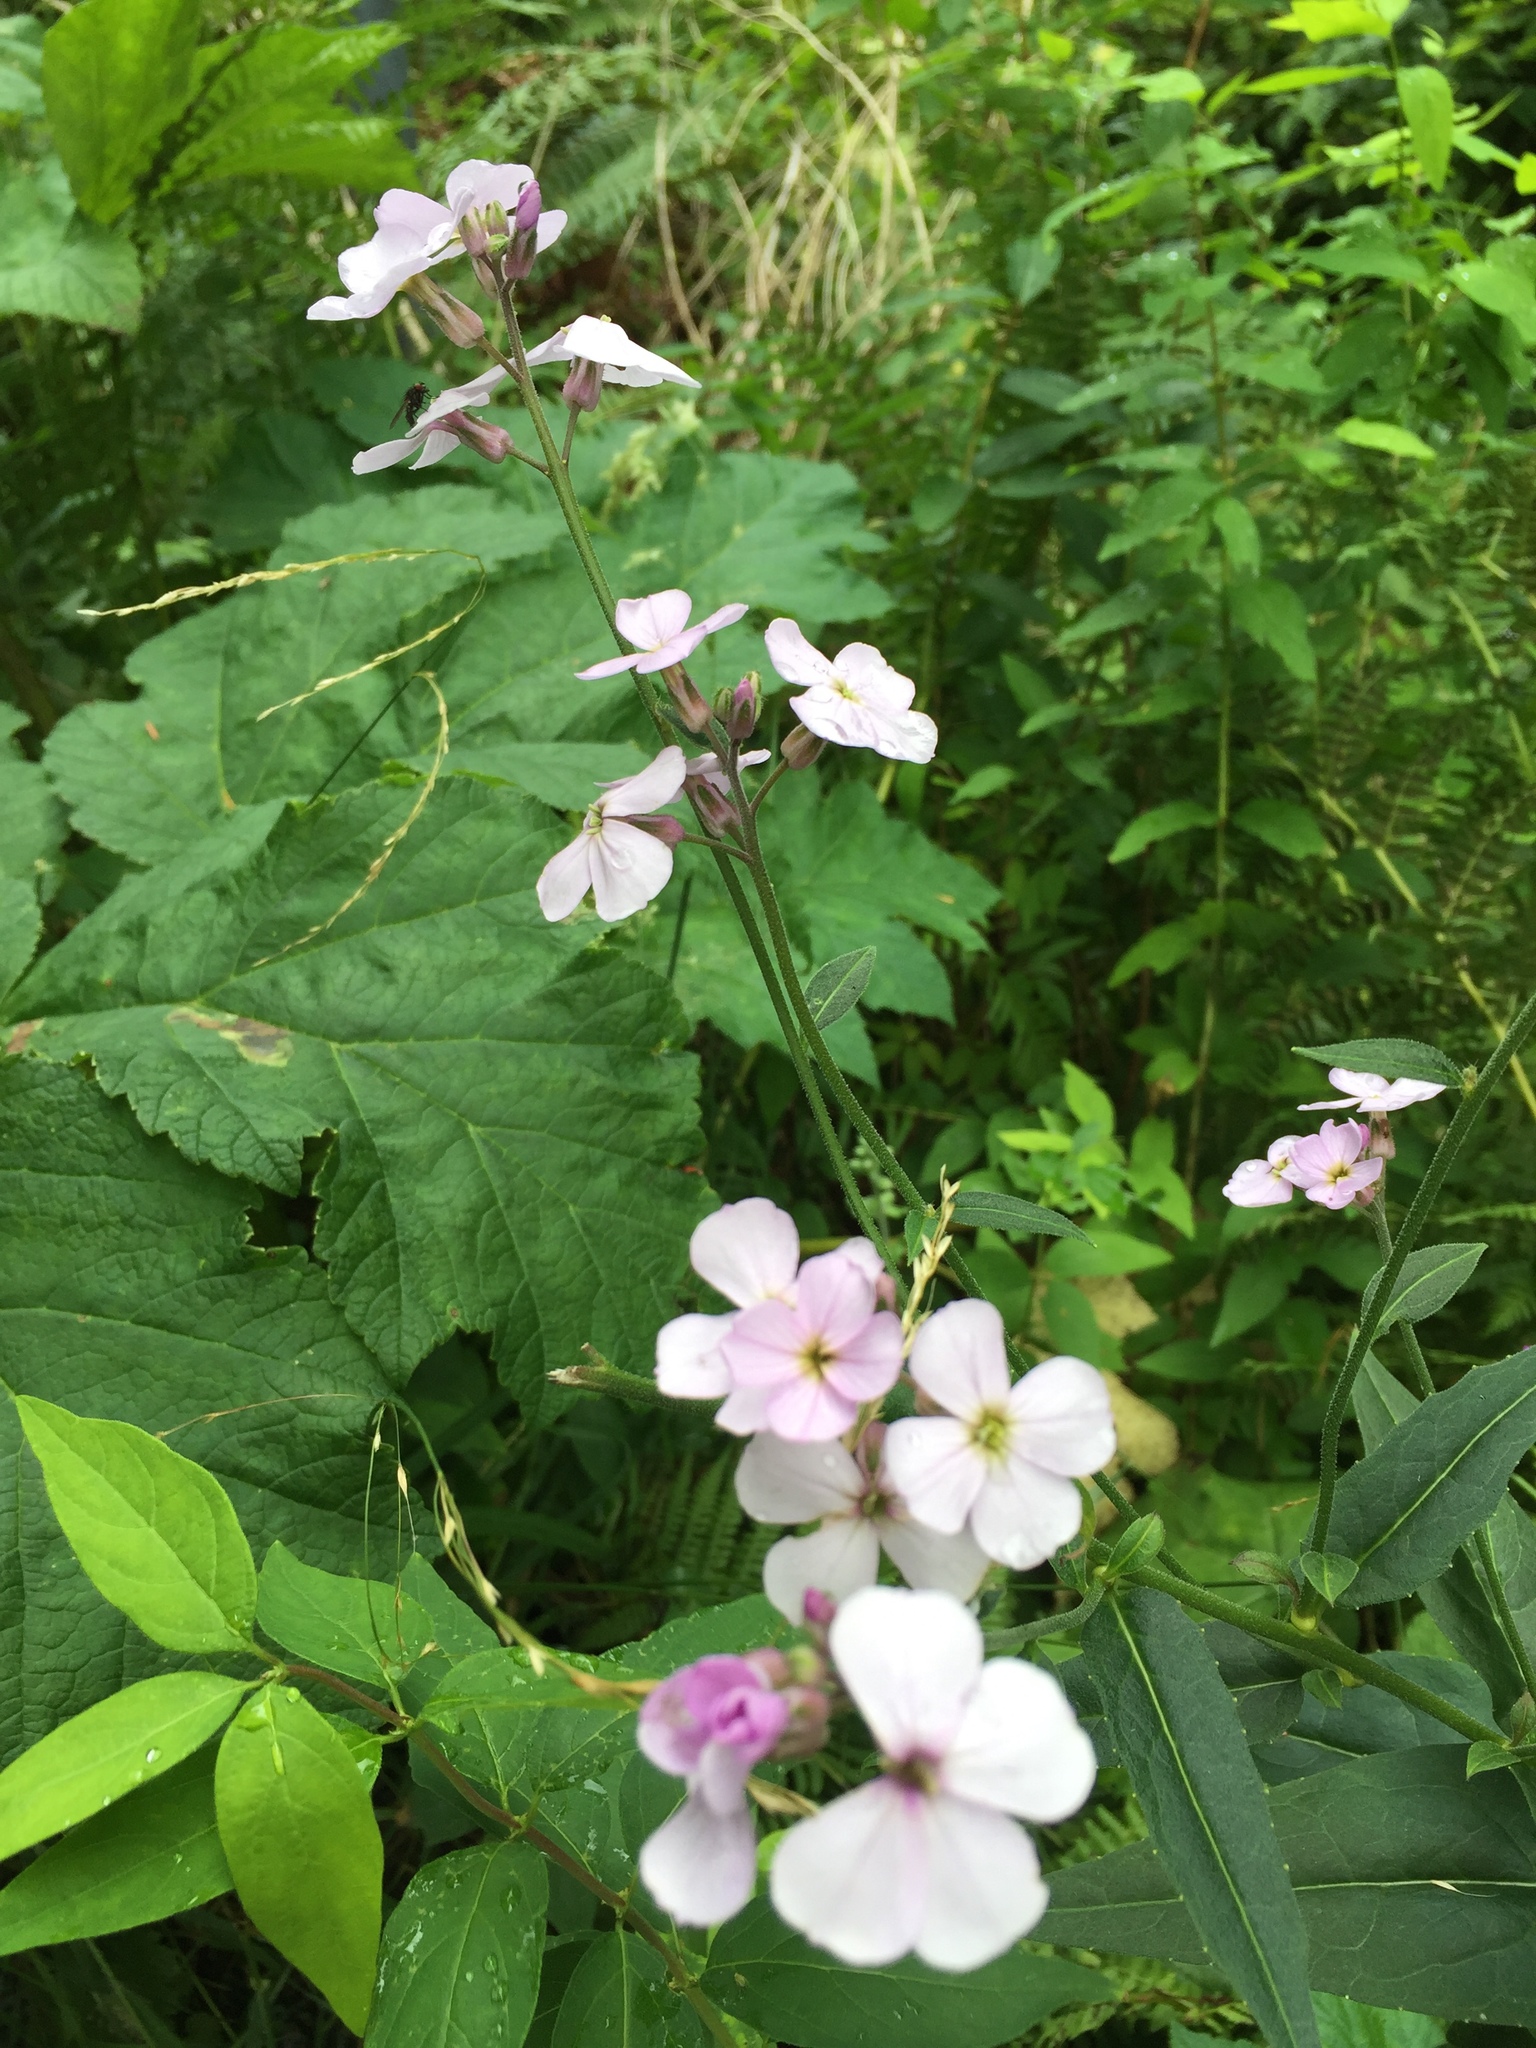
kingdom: Plantae
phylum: Tracheophyta
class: Magnoliopsida
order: Brassicales
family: Brassicaceae
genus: Hesperis
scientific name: Hesperis matronalis
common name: Dame's-violet
